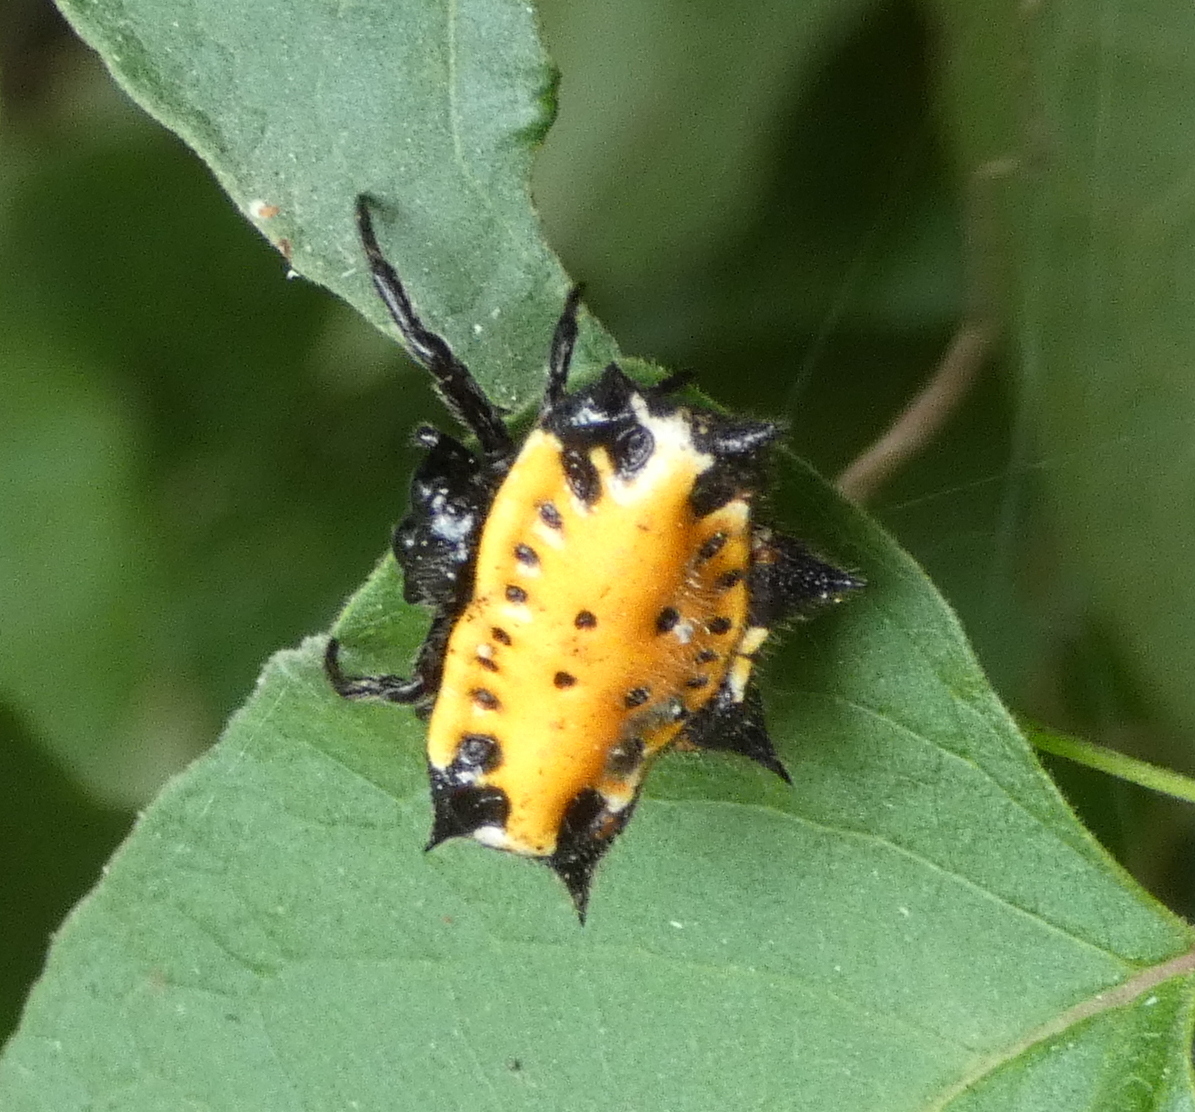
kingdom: Animalia
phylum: Arthropoda
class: Arachnida
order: Araneae
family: Araneidae
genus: Gasteracantha
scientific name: Gasteracantha cancriformis
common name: Orb weavers
